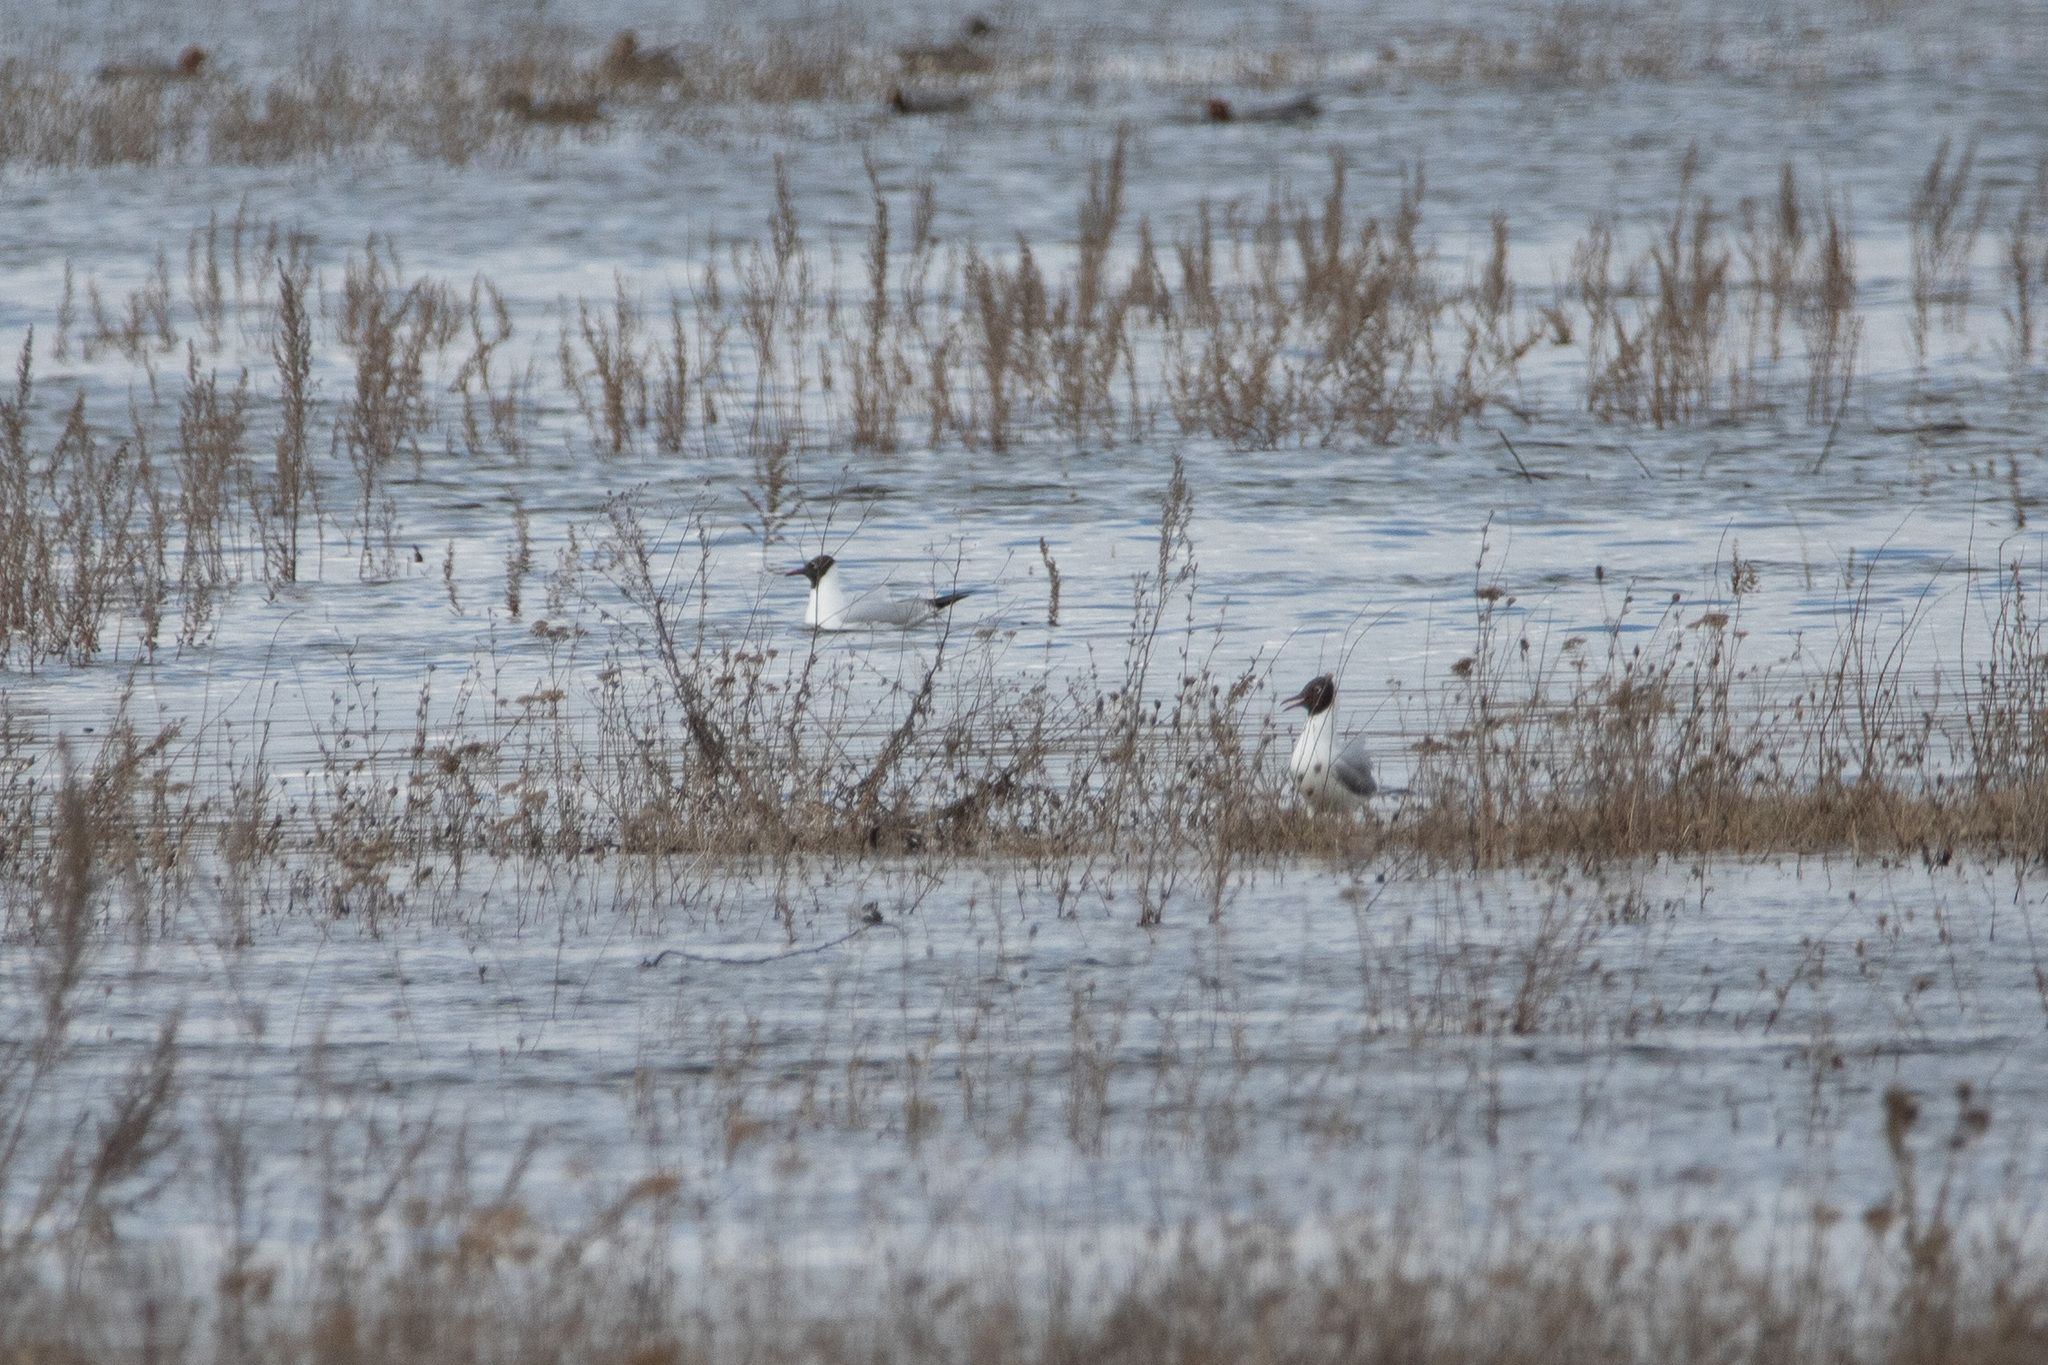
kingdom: Animalia
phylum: Chordata
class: Aves
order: Charadriiformes
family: Laridae
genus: Chroicocephalus
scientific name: Chroicocephalus ridibundus
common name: Black-headed gull
